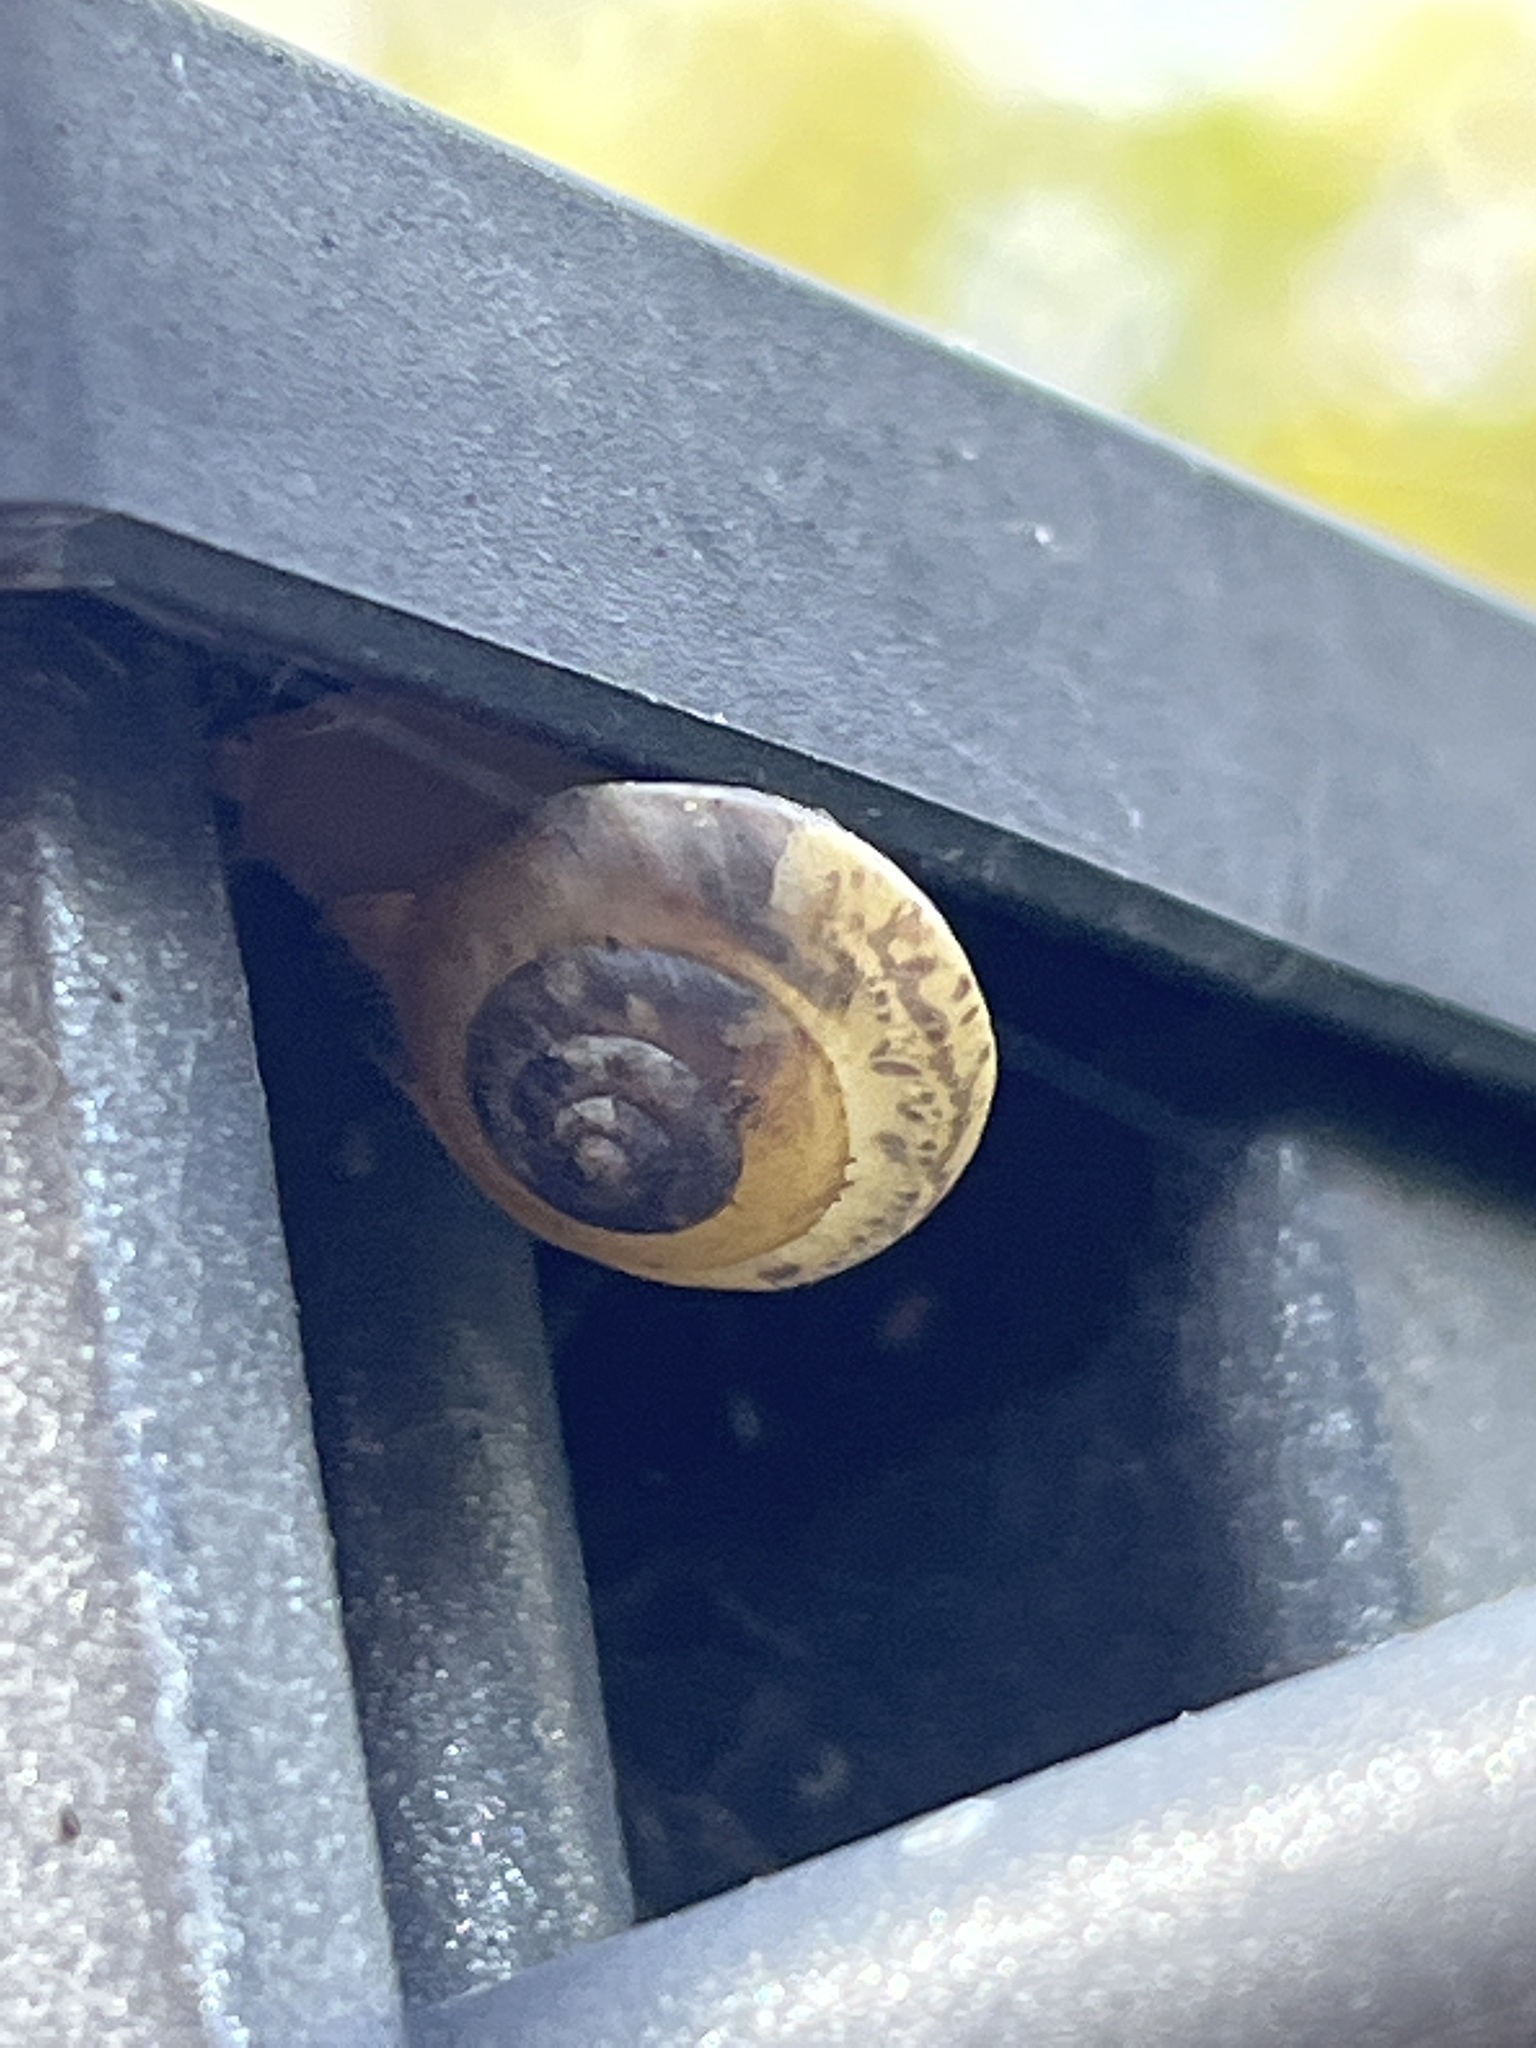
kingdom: Animalia
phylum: Mollusca
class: Gastropoda
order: Stylommatophora
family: Hygromiidae
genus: Hygromia
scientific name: Hygromia cinctella
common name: Girdled snail
